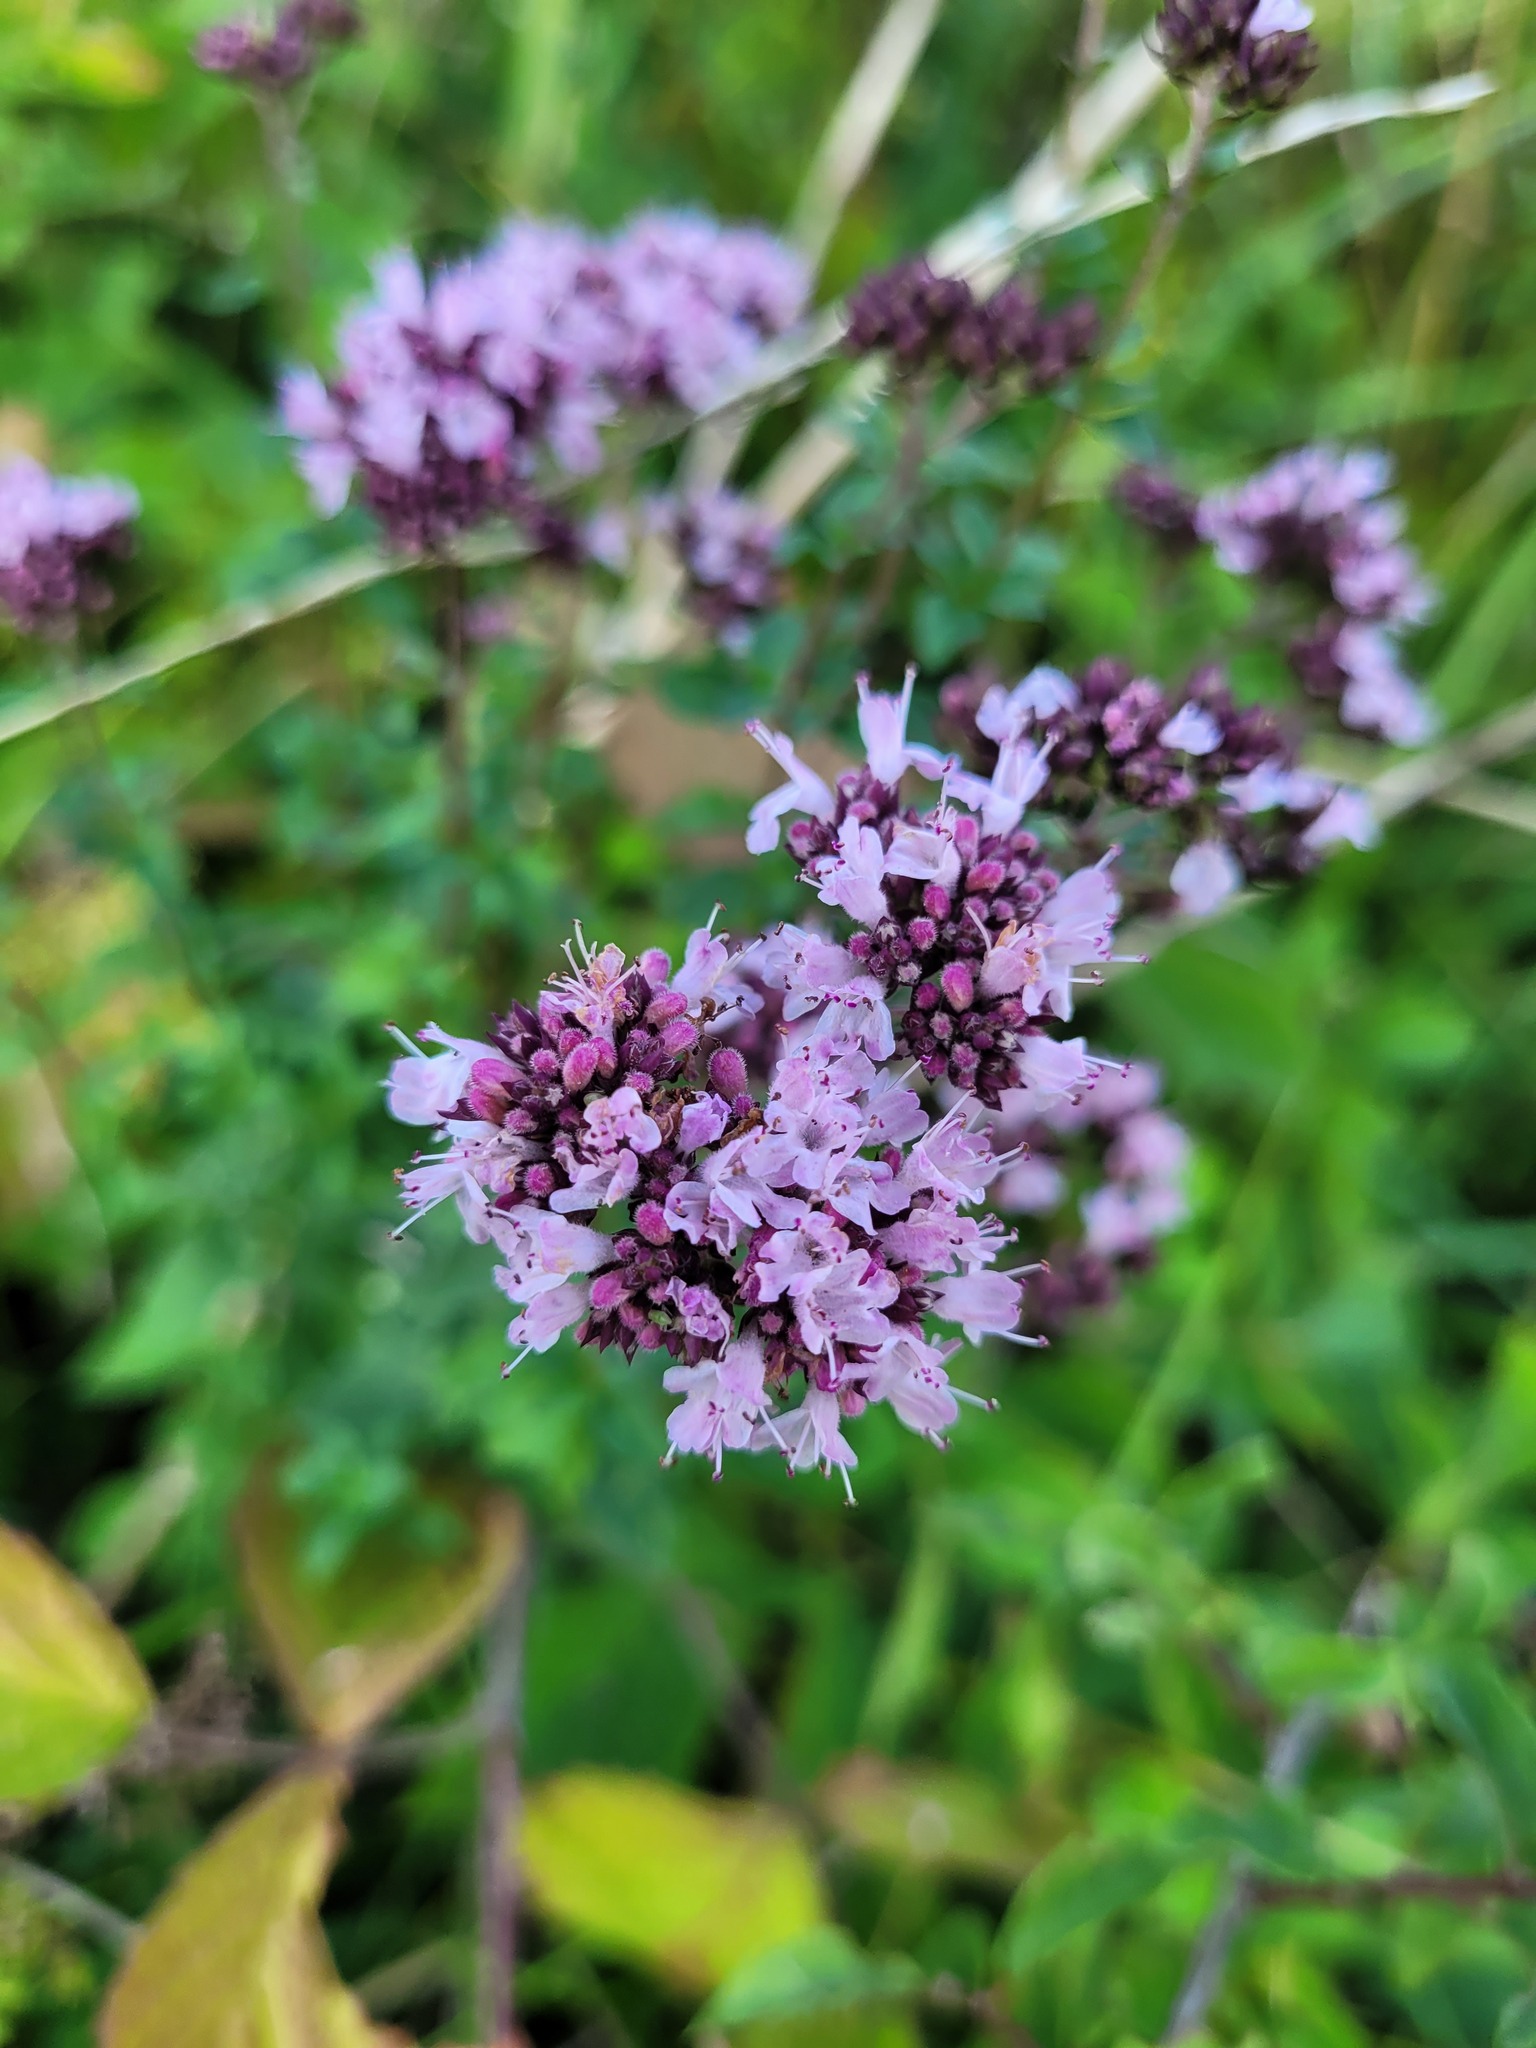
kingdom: Plantae
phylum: Tracheophyta
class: Magnoliopsida
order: Lamiales
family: Lamiaceae
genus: Origanum
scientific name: Origanum vulgare
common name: Wild marjoram
